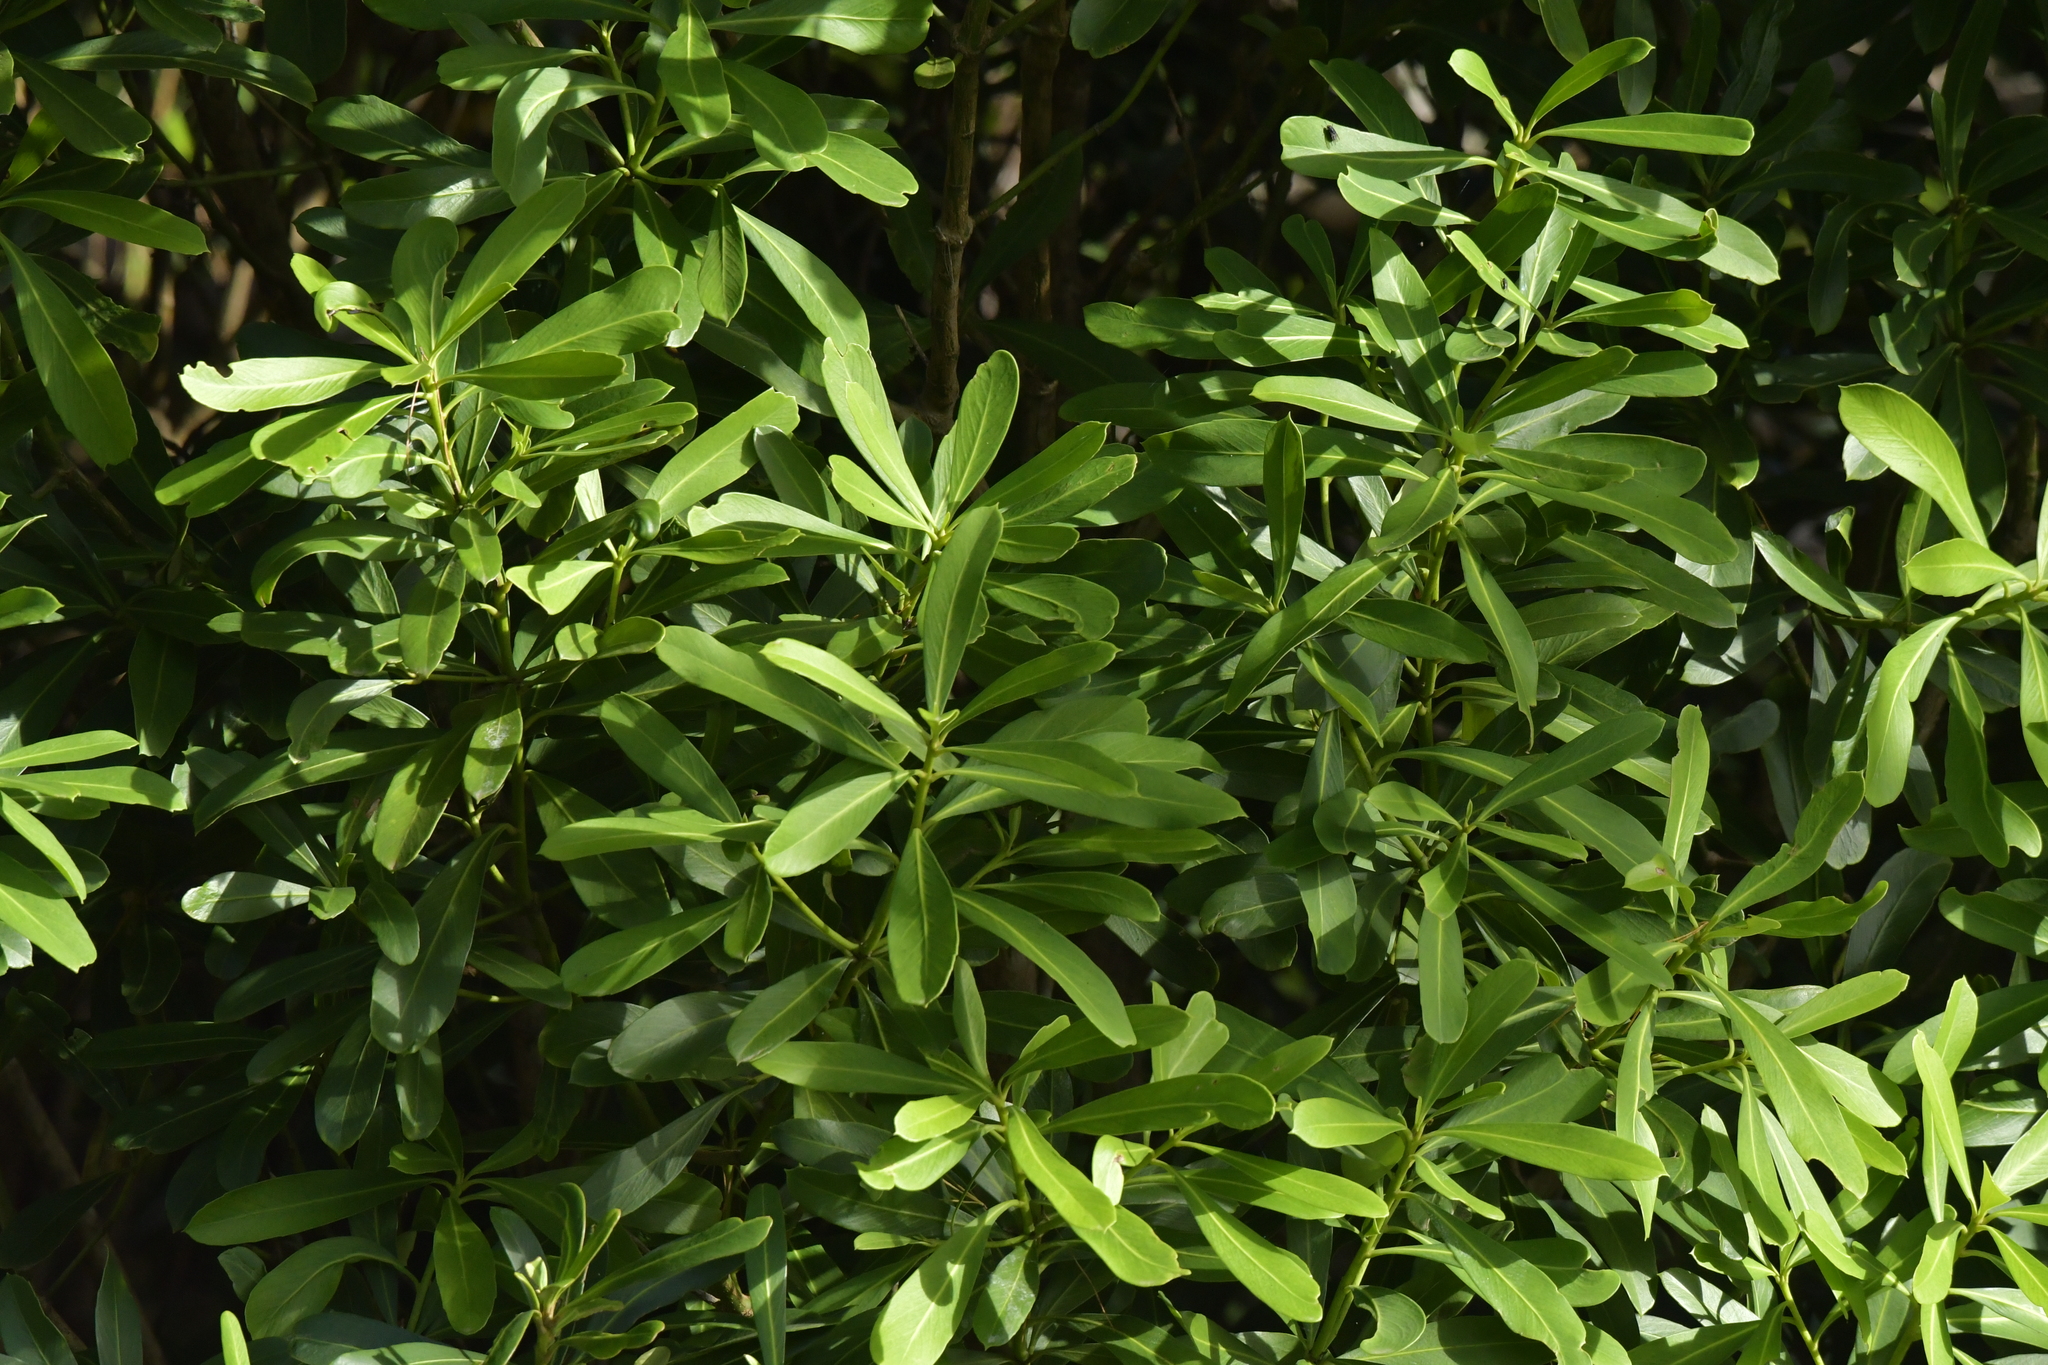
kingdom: Plantae
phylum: Tracheophyta
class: Magnoliopsida
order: Apiales
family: Araliaceae
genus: Pseudopanax
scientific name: Pseudopanax chathamicus
